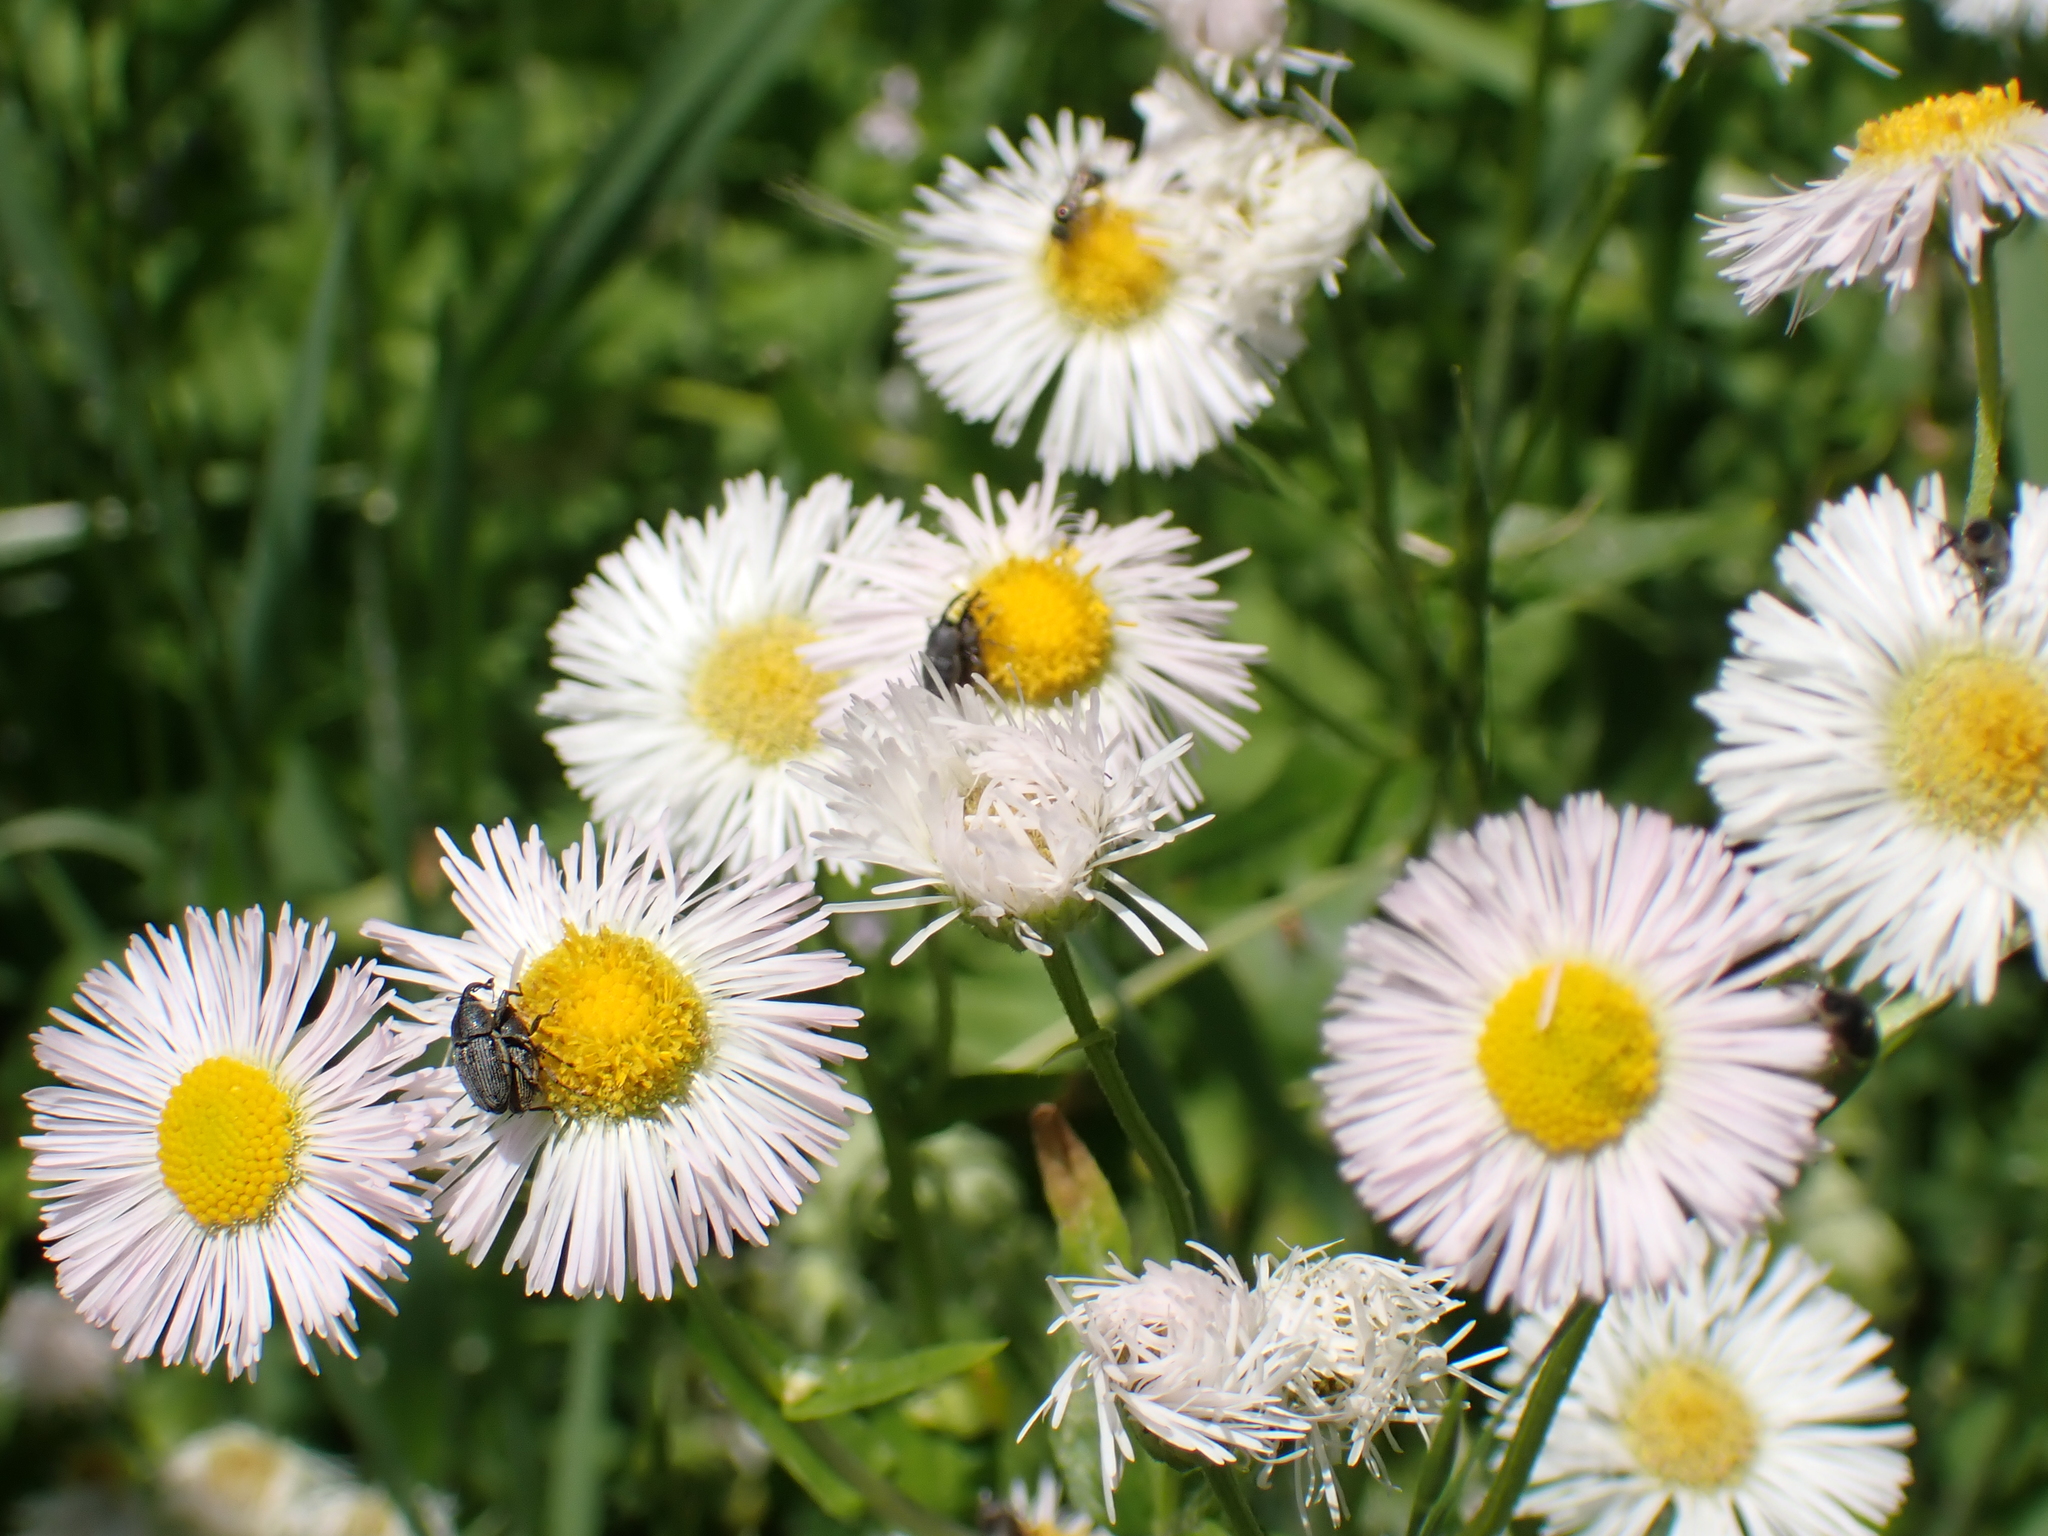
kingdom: Plantae
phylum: Tracheophyta
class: Magnoliopsida
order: Asterales
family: Asteraceae
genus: Erigeron
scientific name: Erigeron philadelphicus
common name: Robin's-plantain
